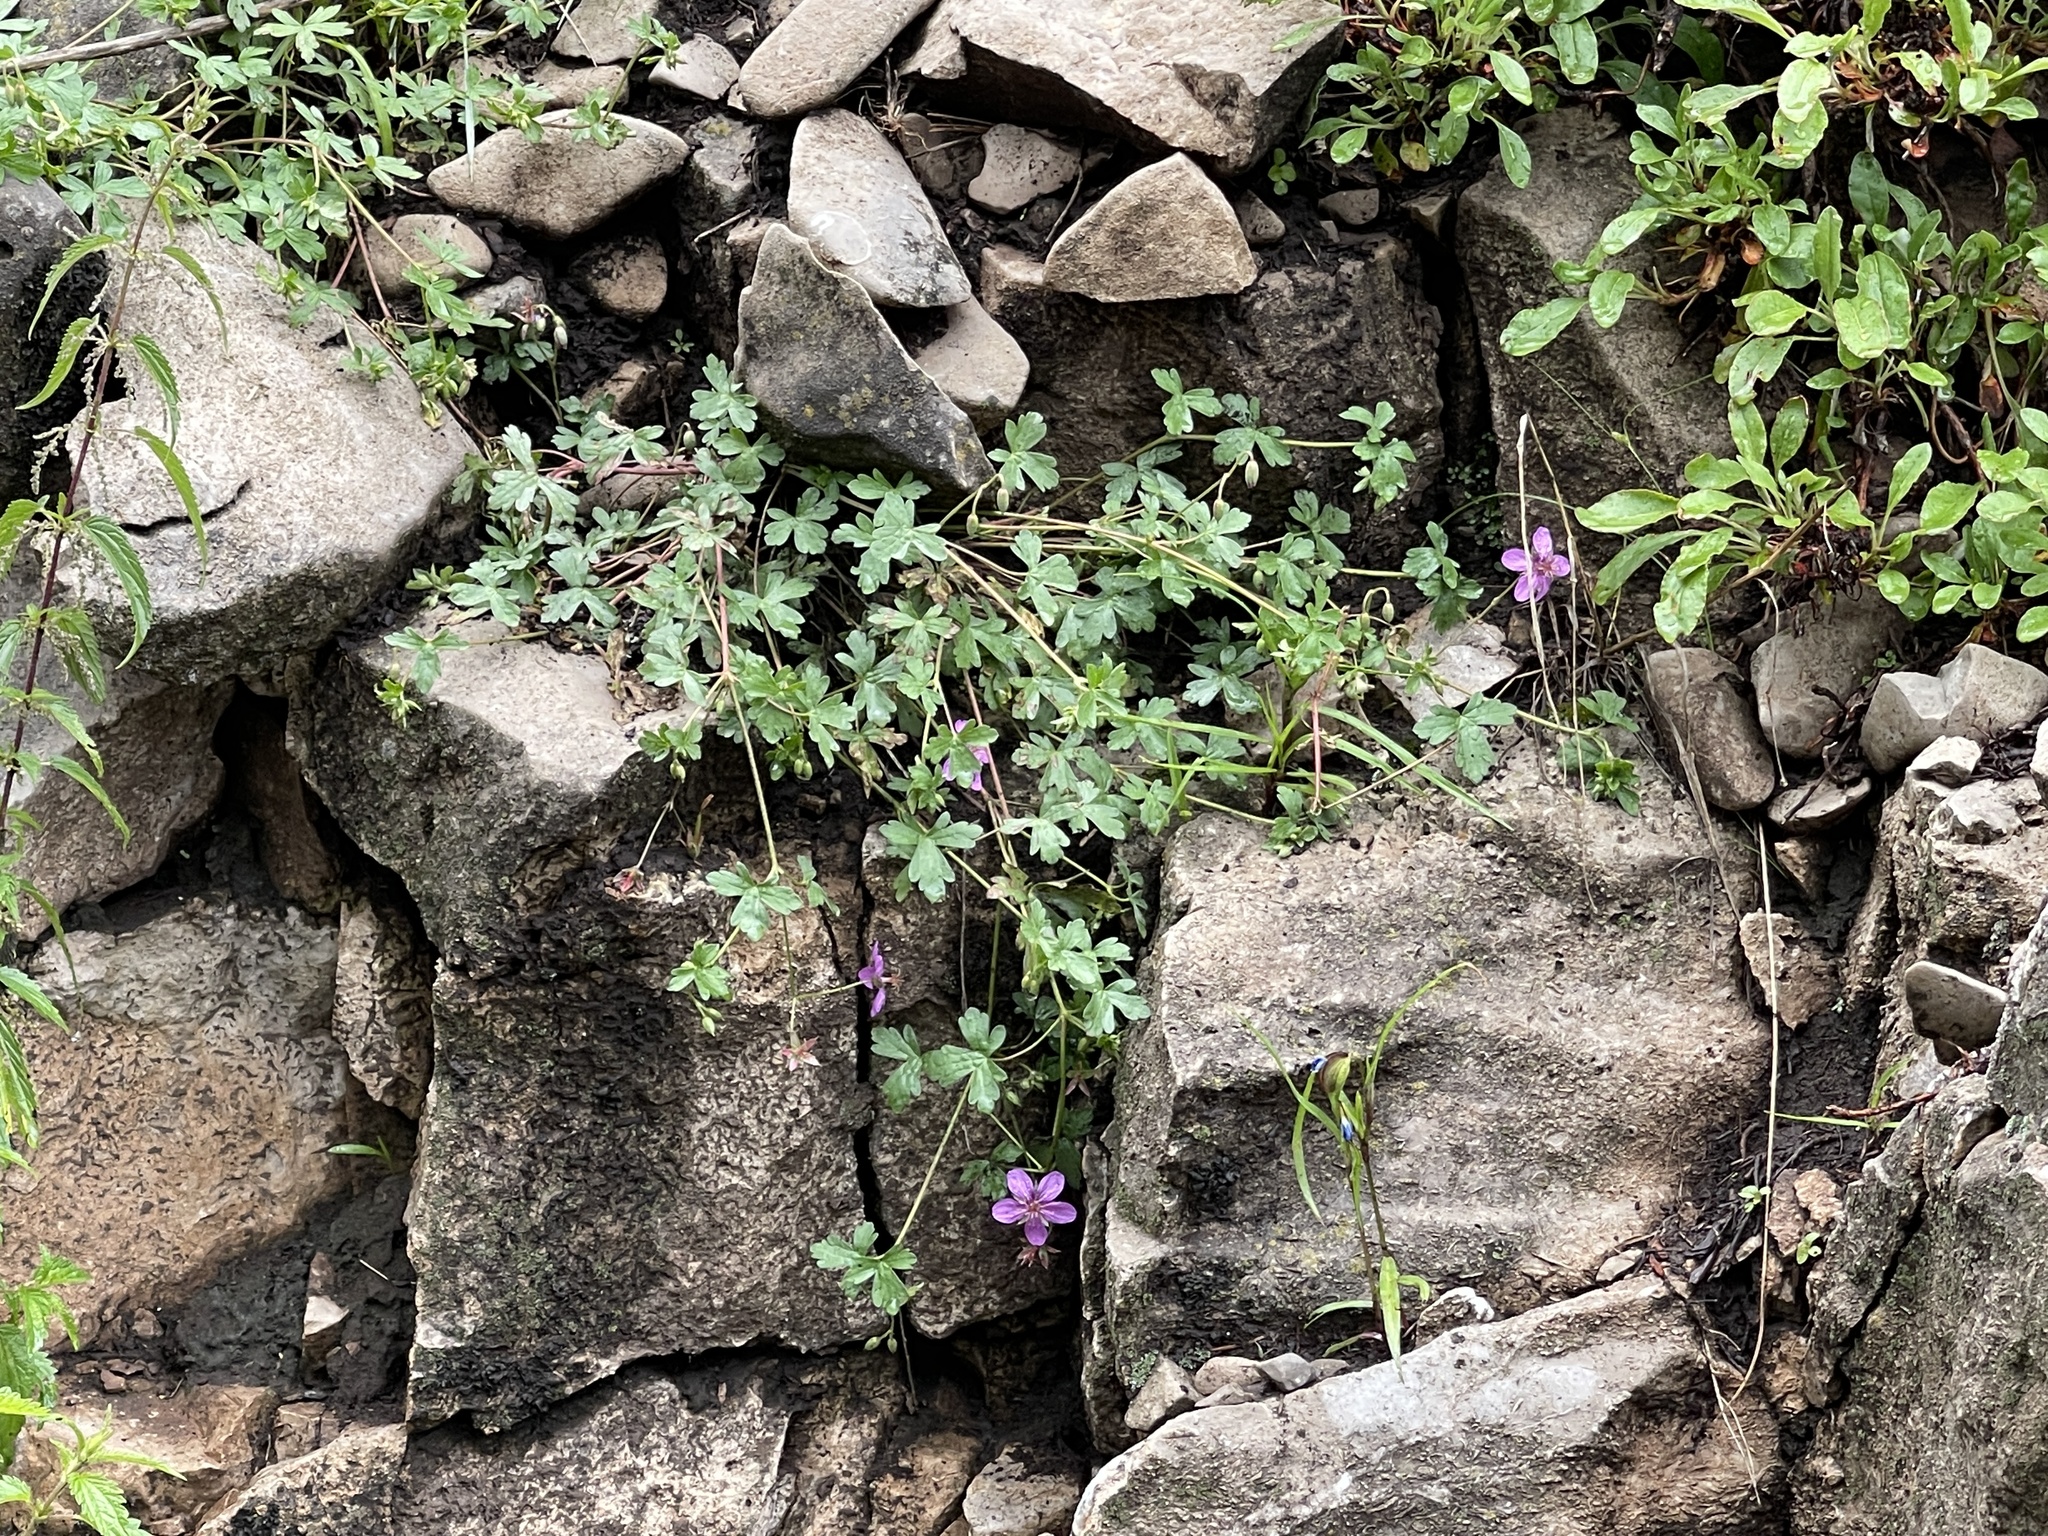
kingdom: Plantae
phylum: Tracheophyta
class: Magnoliopsida
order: Geraniales
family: Geraniaceae
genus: Geranium
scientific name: Geranium caespitosum
